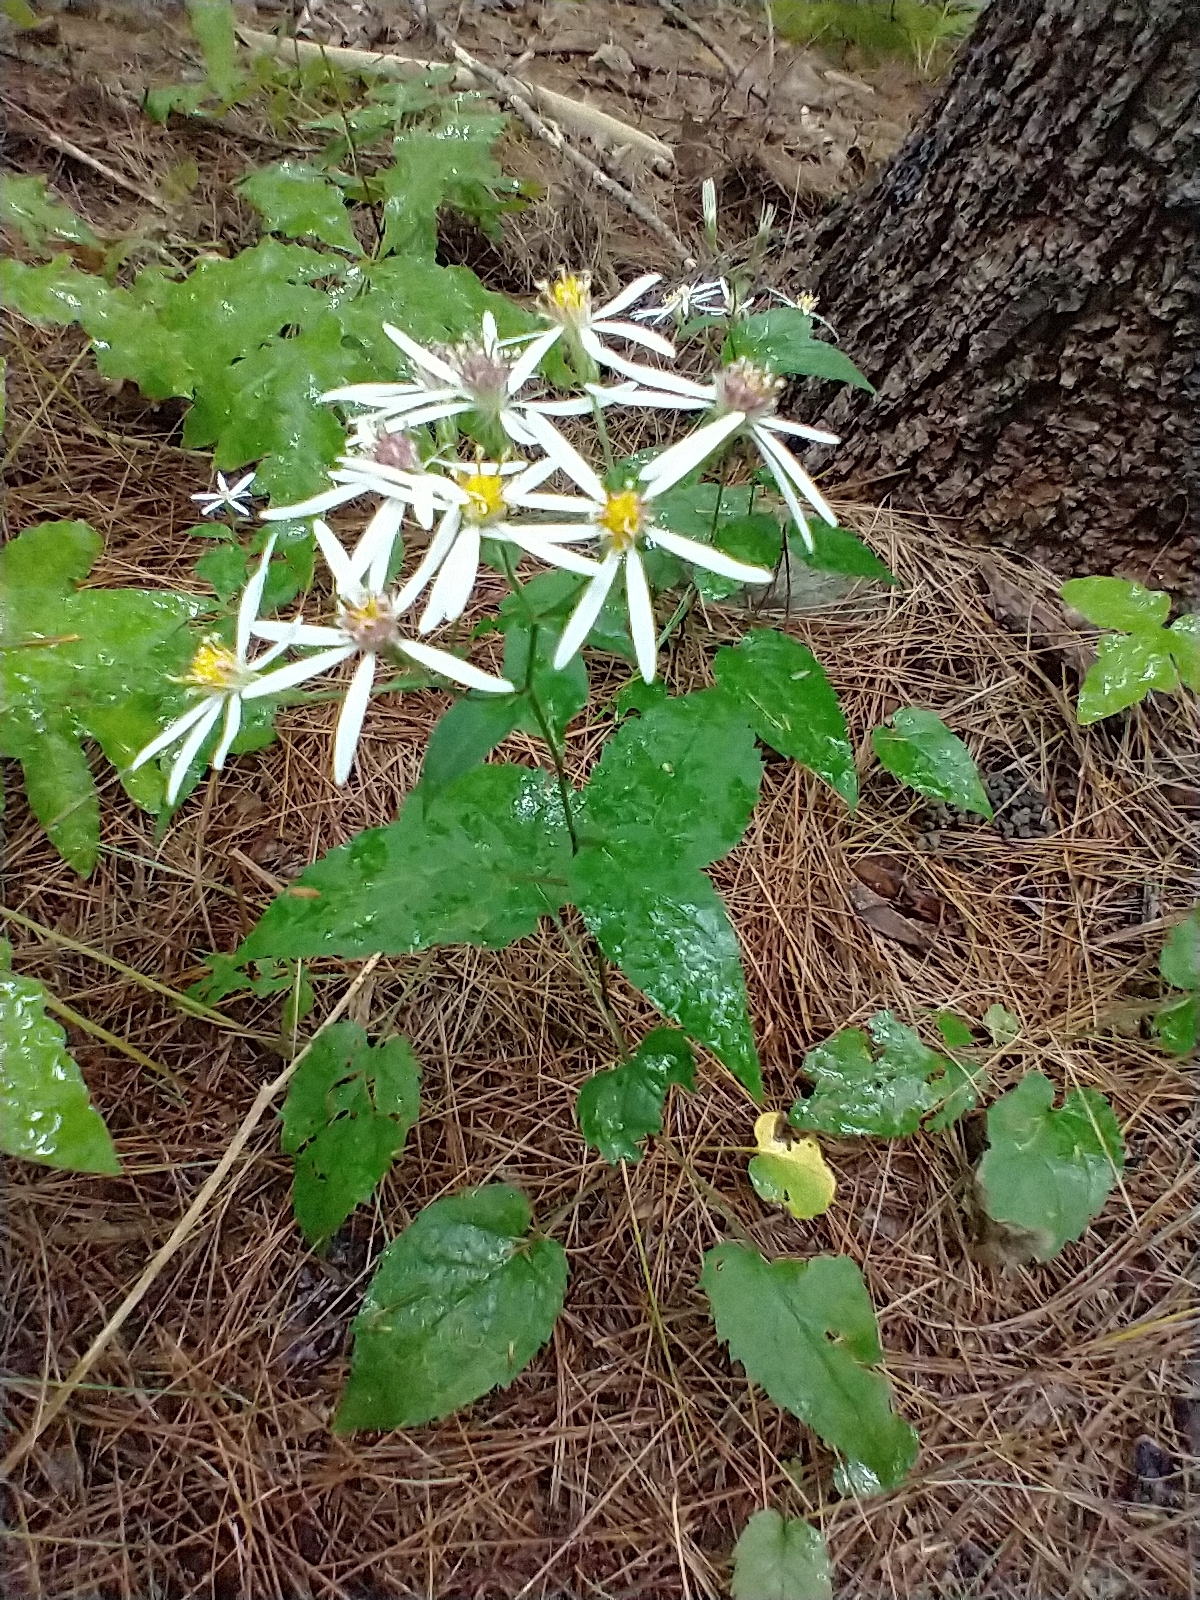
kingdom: Plantae
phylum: Tracheophyta
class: Magnoliopsida
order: Asterales
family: Asteraceae
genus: Eurybia
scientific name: Eurybia divaricata
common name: White wood aster
